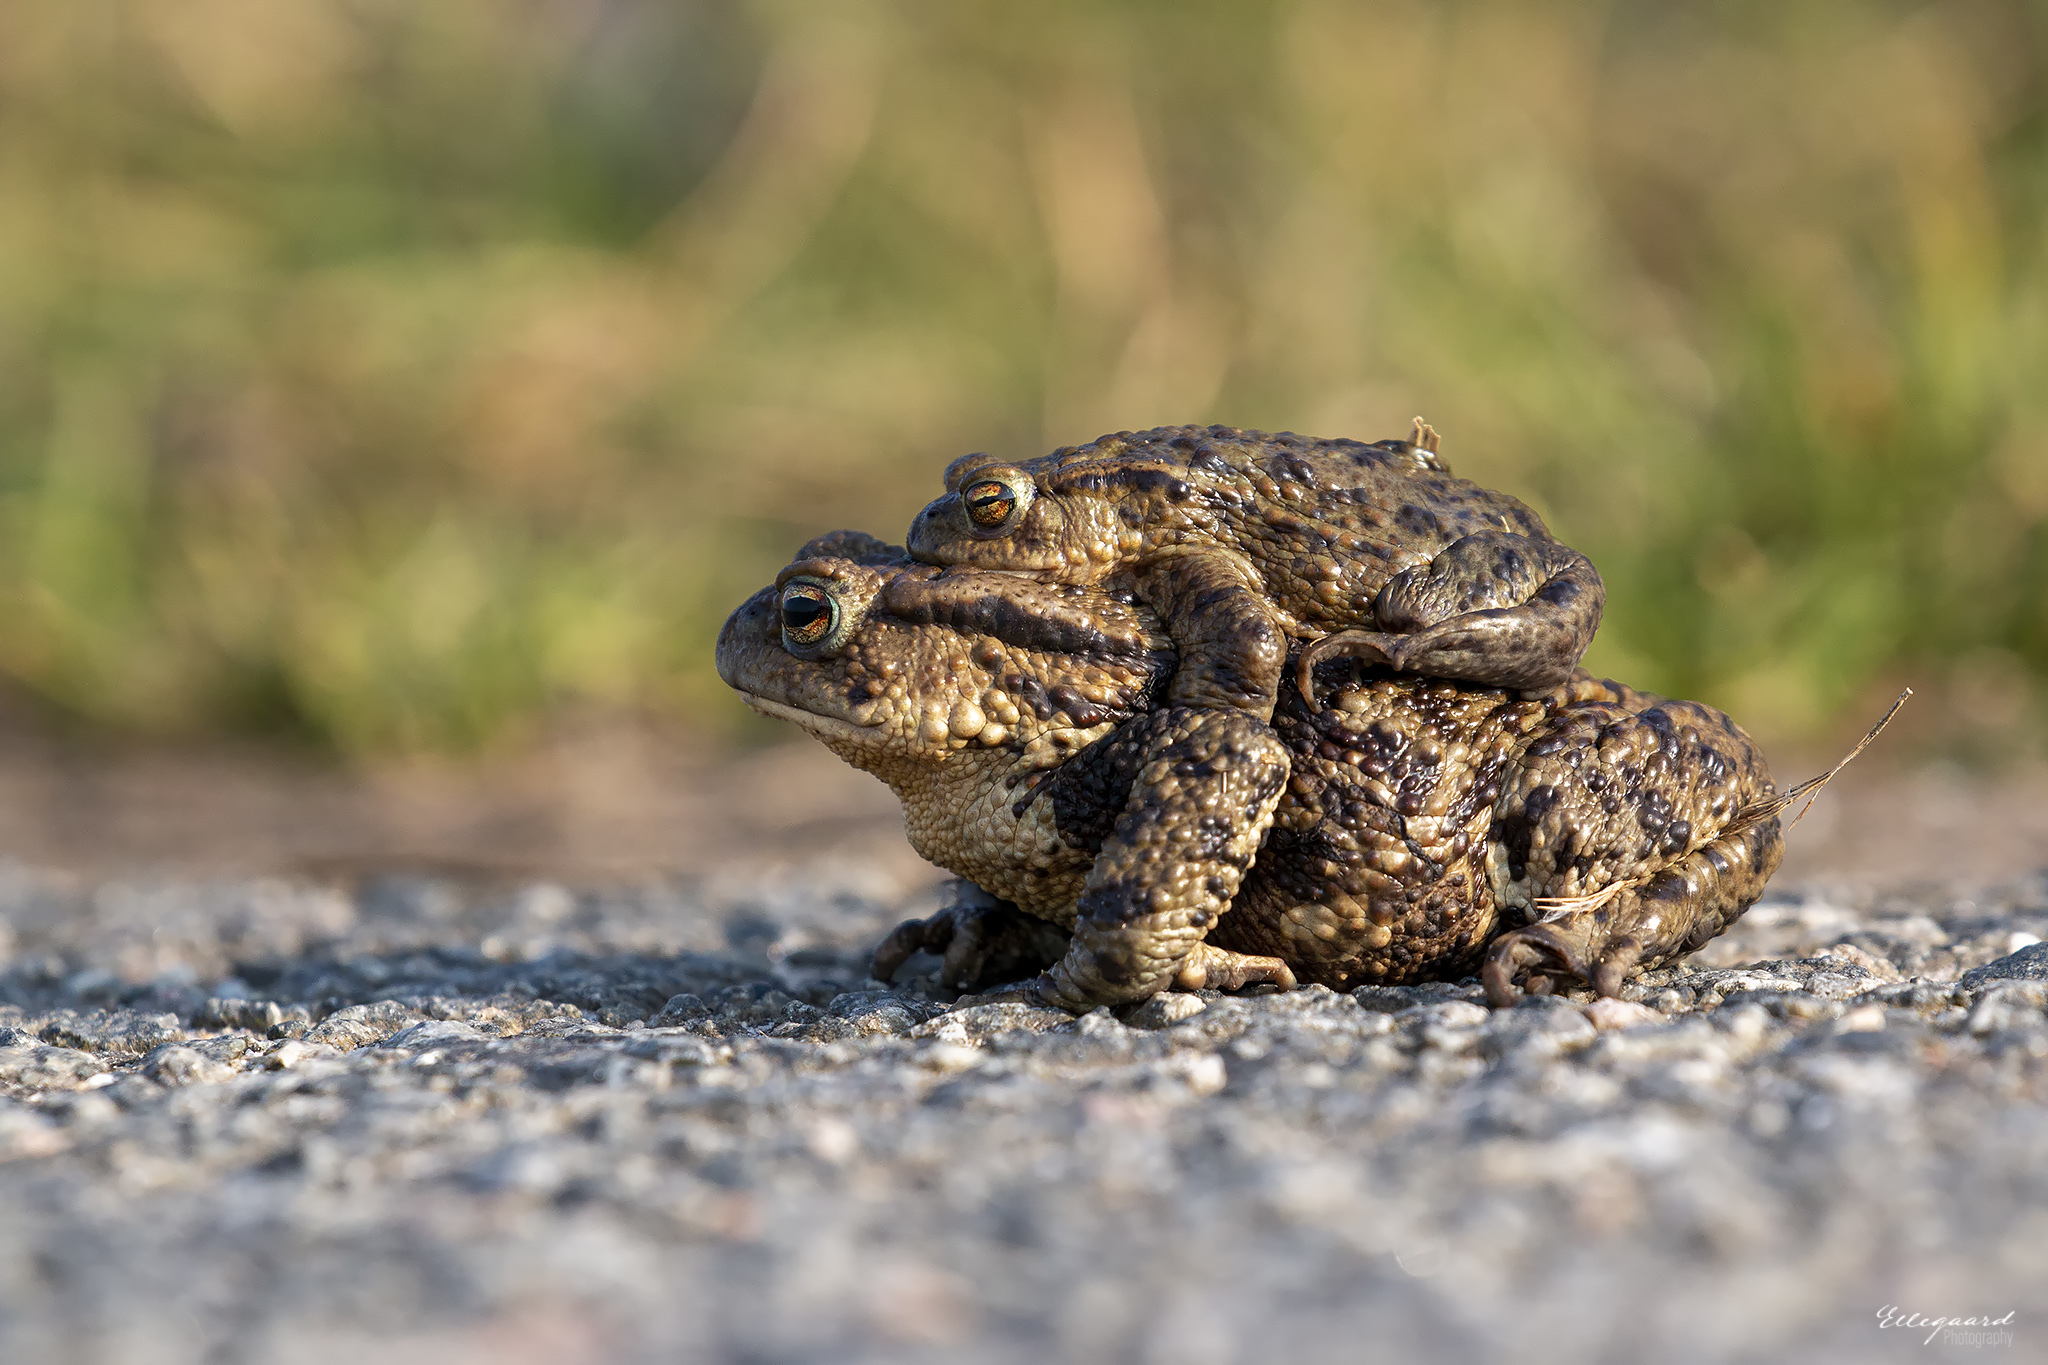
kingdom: Animalia
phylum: Chordata
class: Amphibia
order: Anura
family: Bufonidae
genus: Bufo
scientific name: Bufo bufo
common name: Common toad
